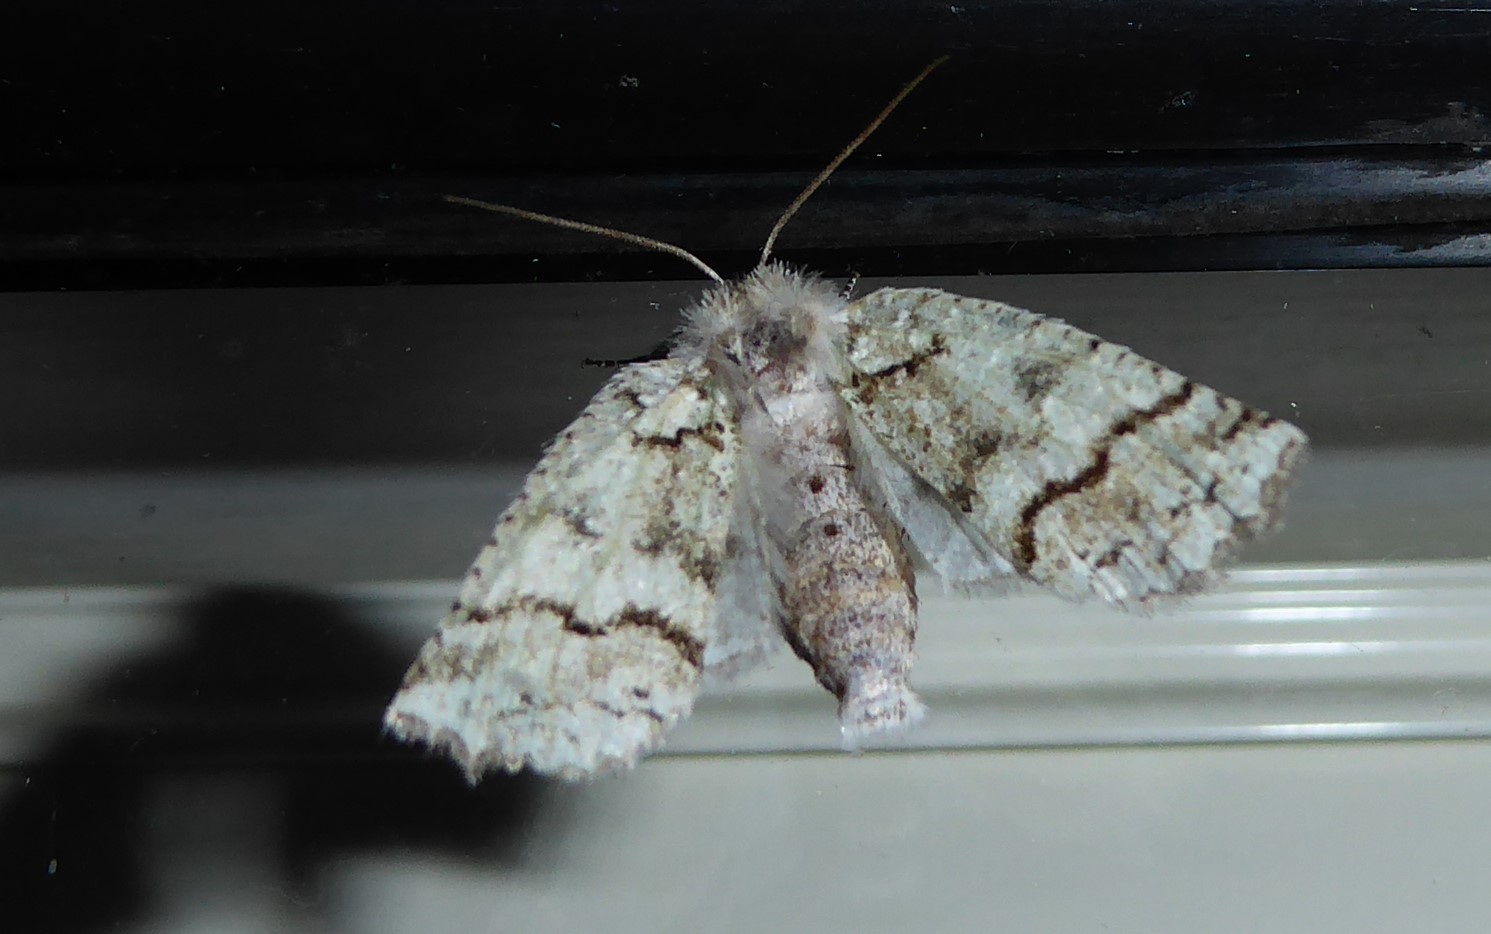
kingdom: Animalia
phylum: Arthropoda
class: Insecta
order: Lepidoptera
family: Geometridae
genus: Declana
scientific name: Declana floccosa
